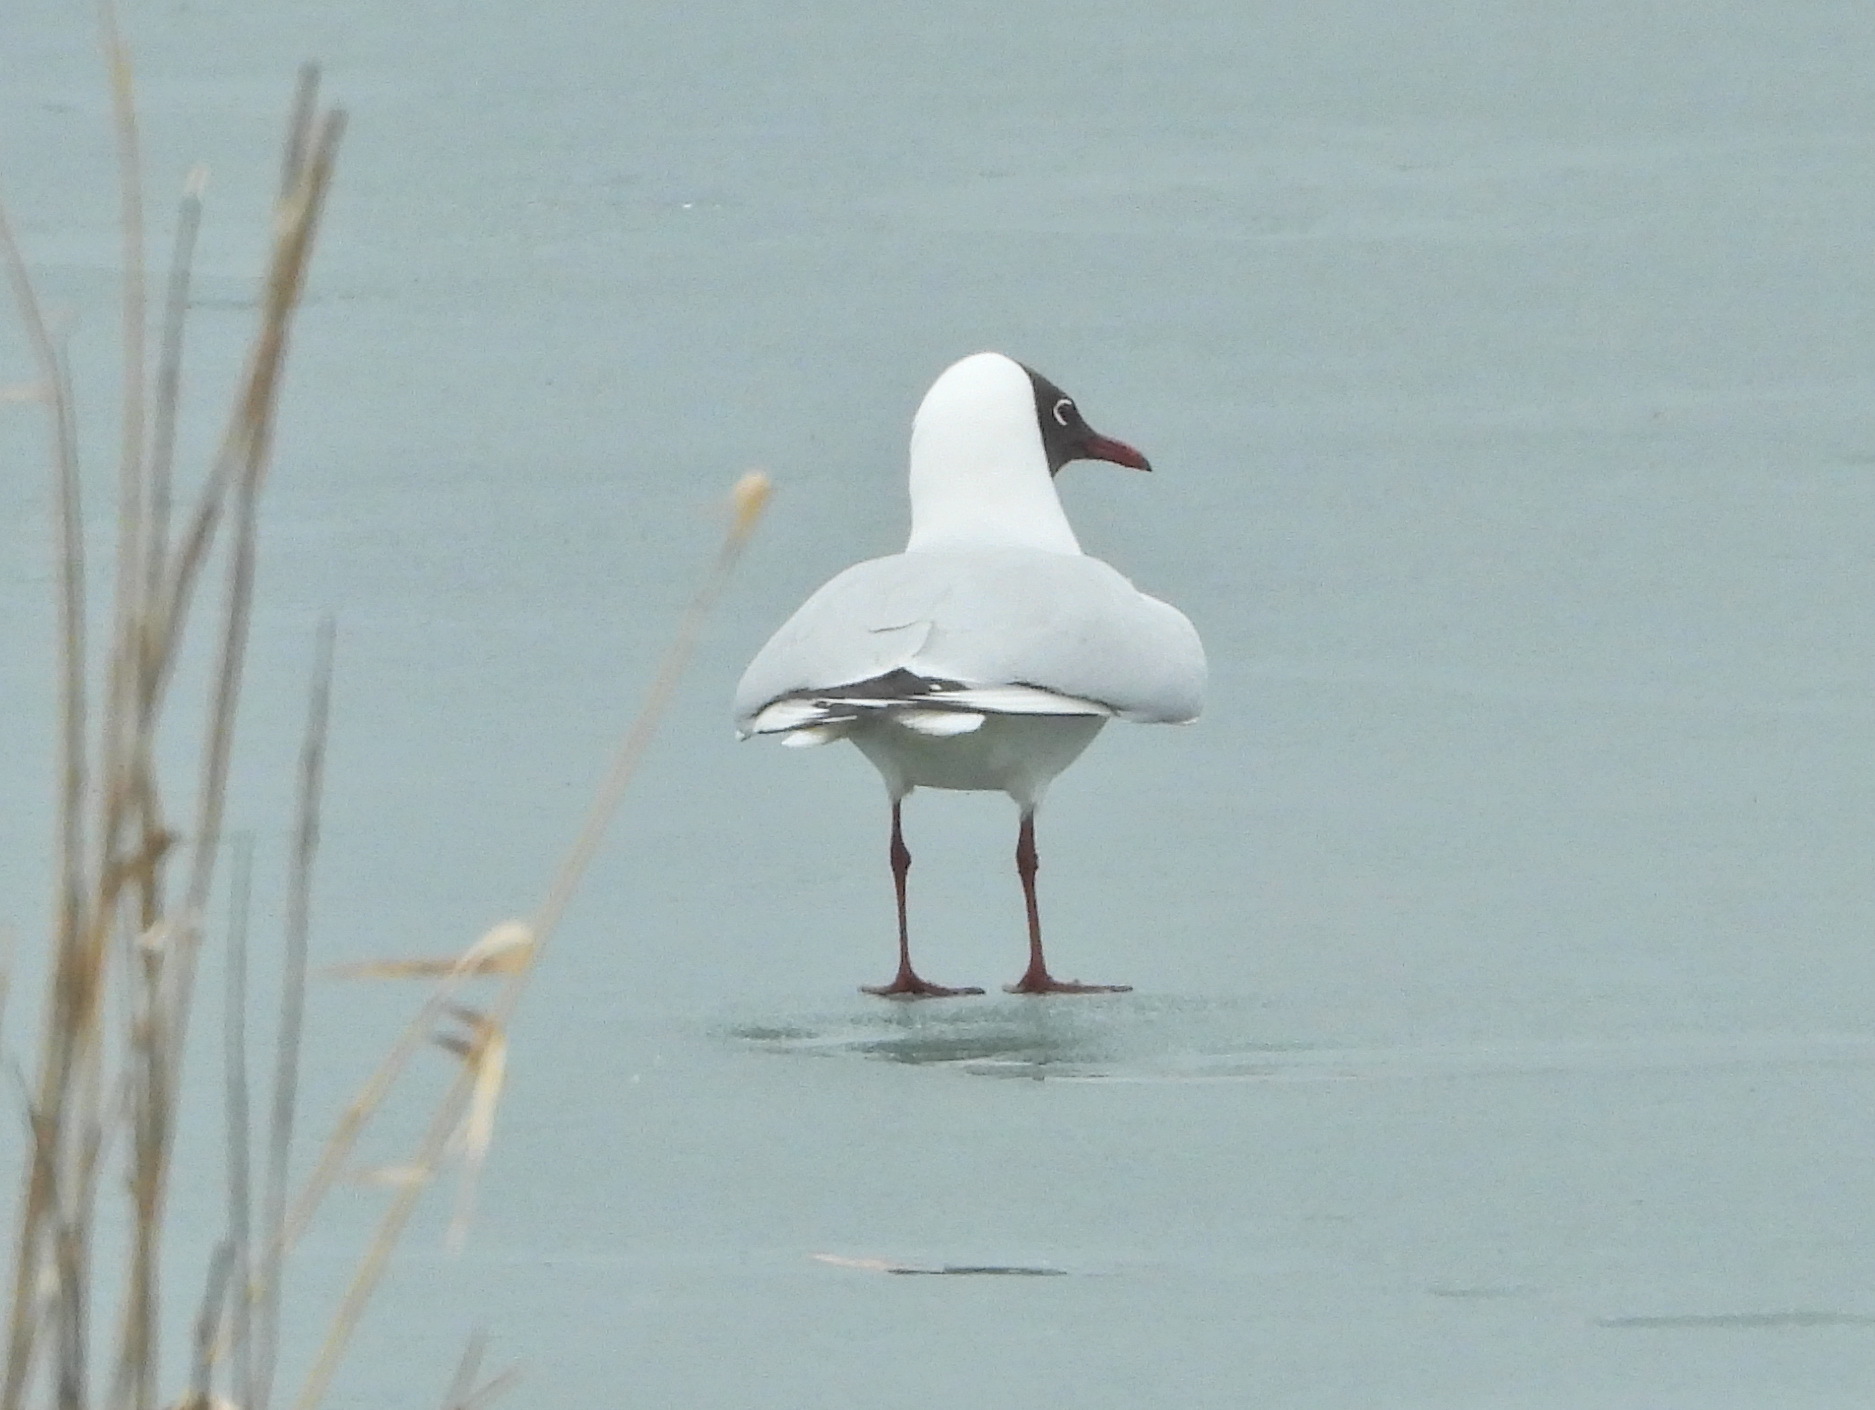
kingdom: Animalia
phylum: Chordata
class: Aves
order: Charadriiformes
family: Laridae
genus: Chroicocephalus
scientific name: Chroicocephalus ridibundus
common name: Black-headed gull
